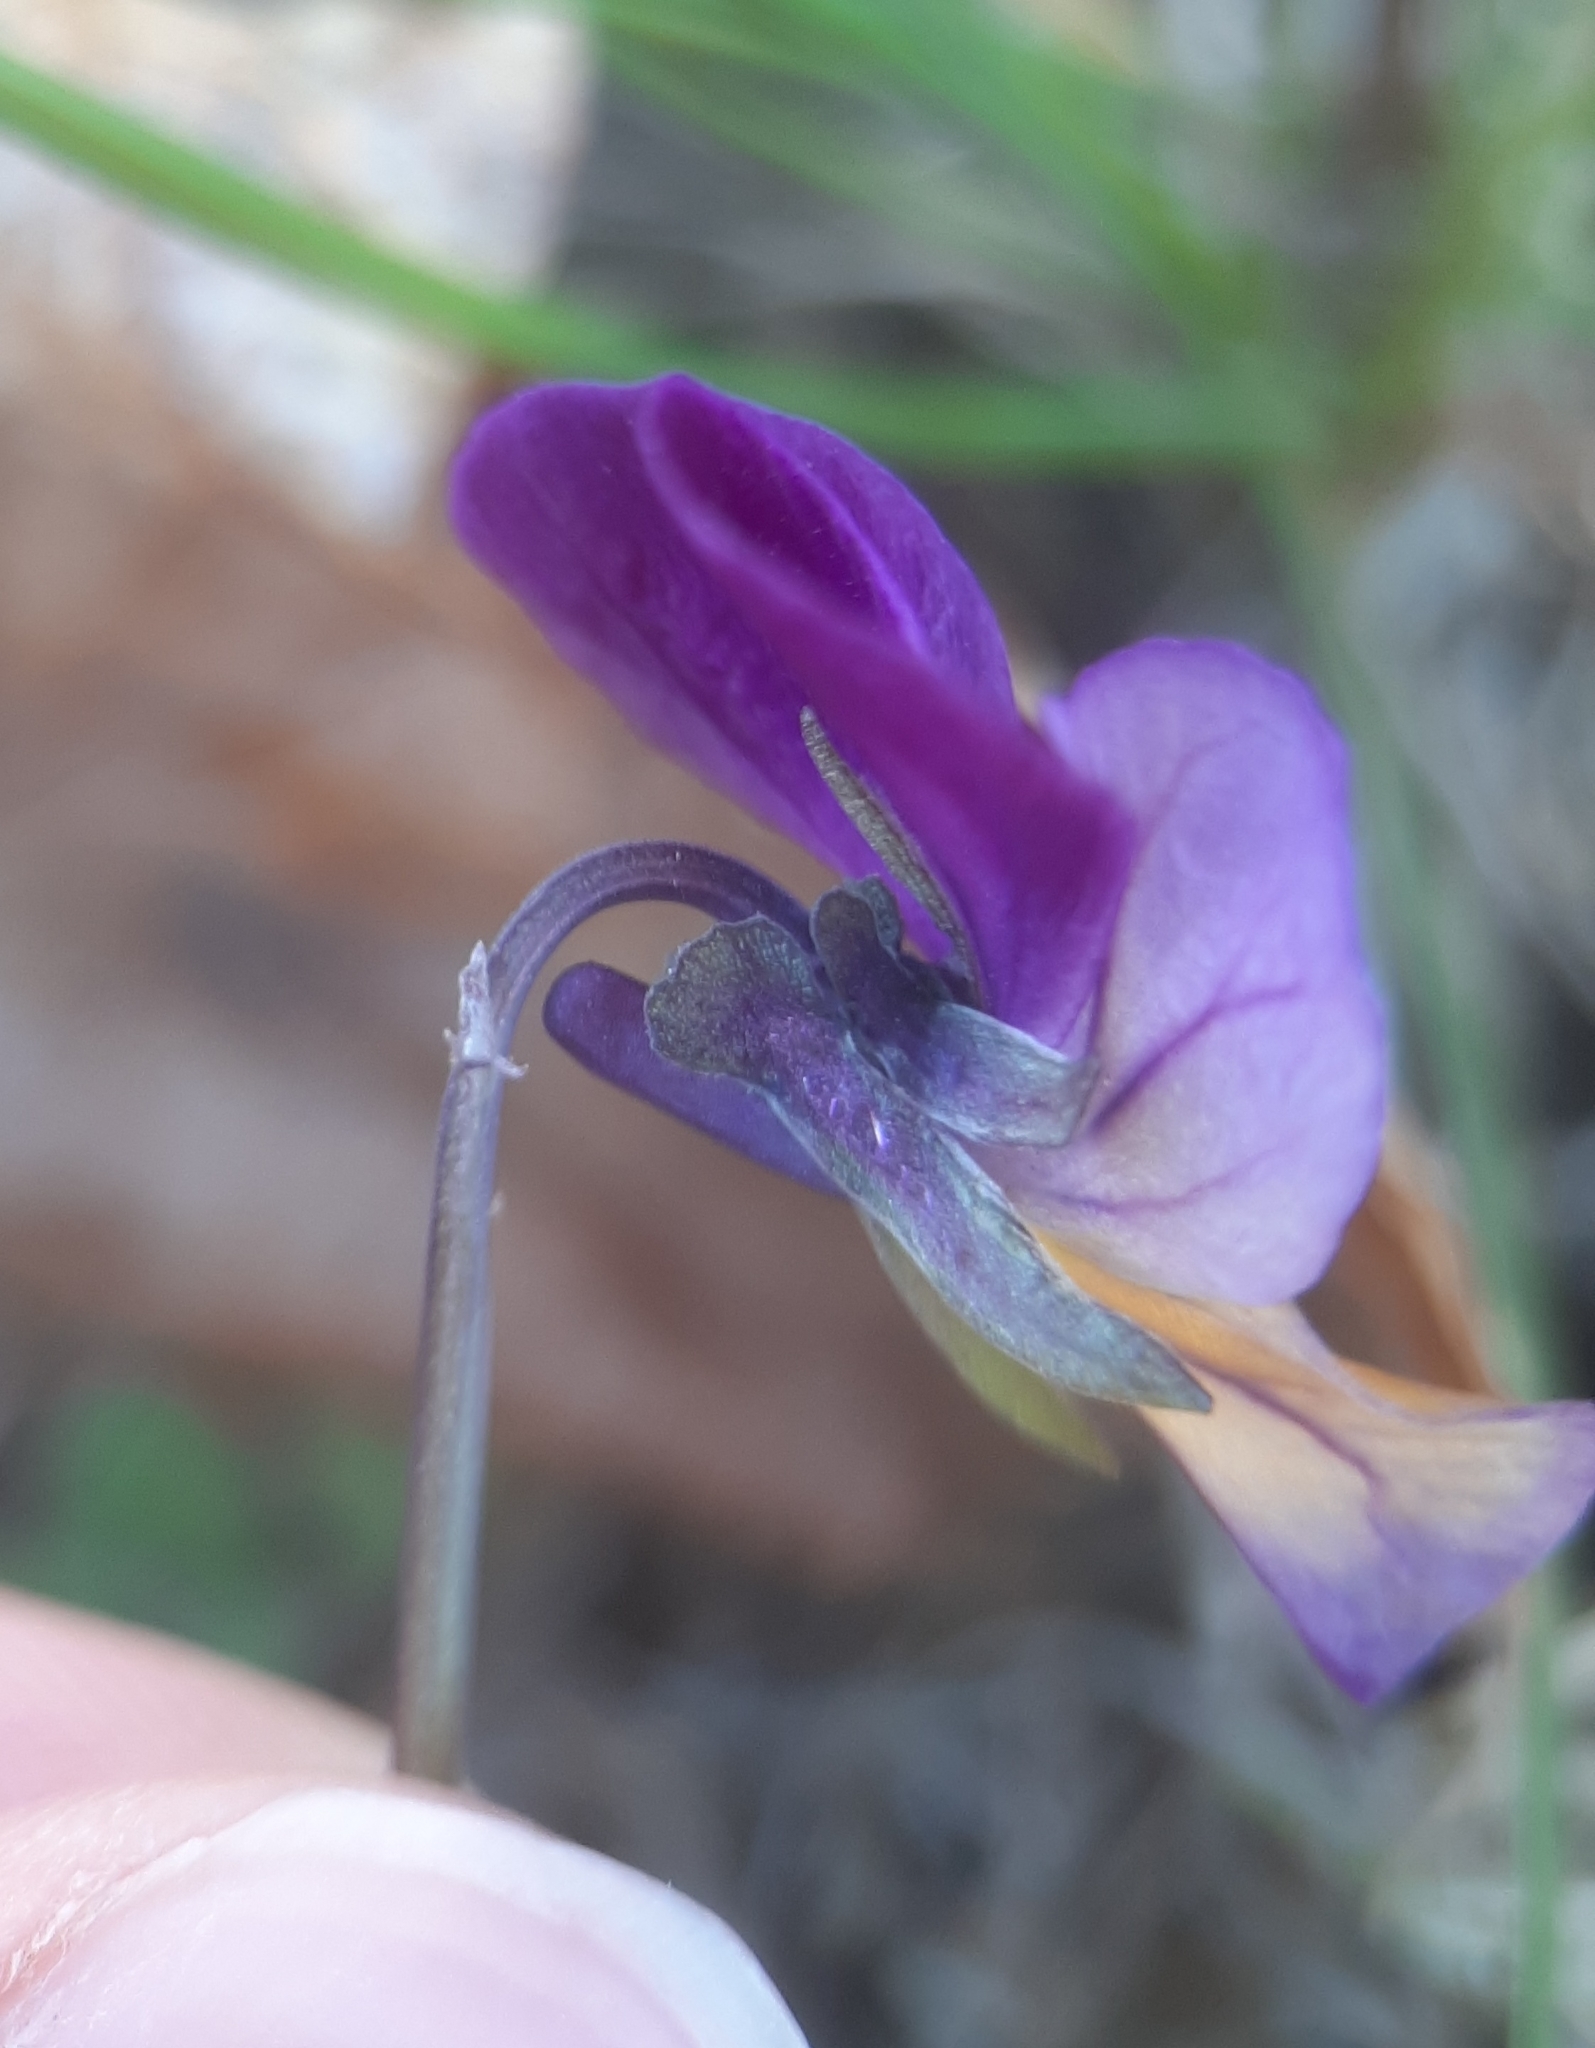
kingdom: Plantae
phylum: Tracheophyta
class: Magnoliopsida
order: Malpighiales
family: Violaceae
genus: Viola
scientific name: Viola williamsii
